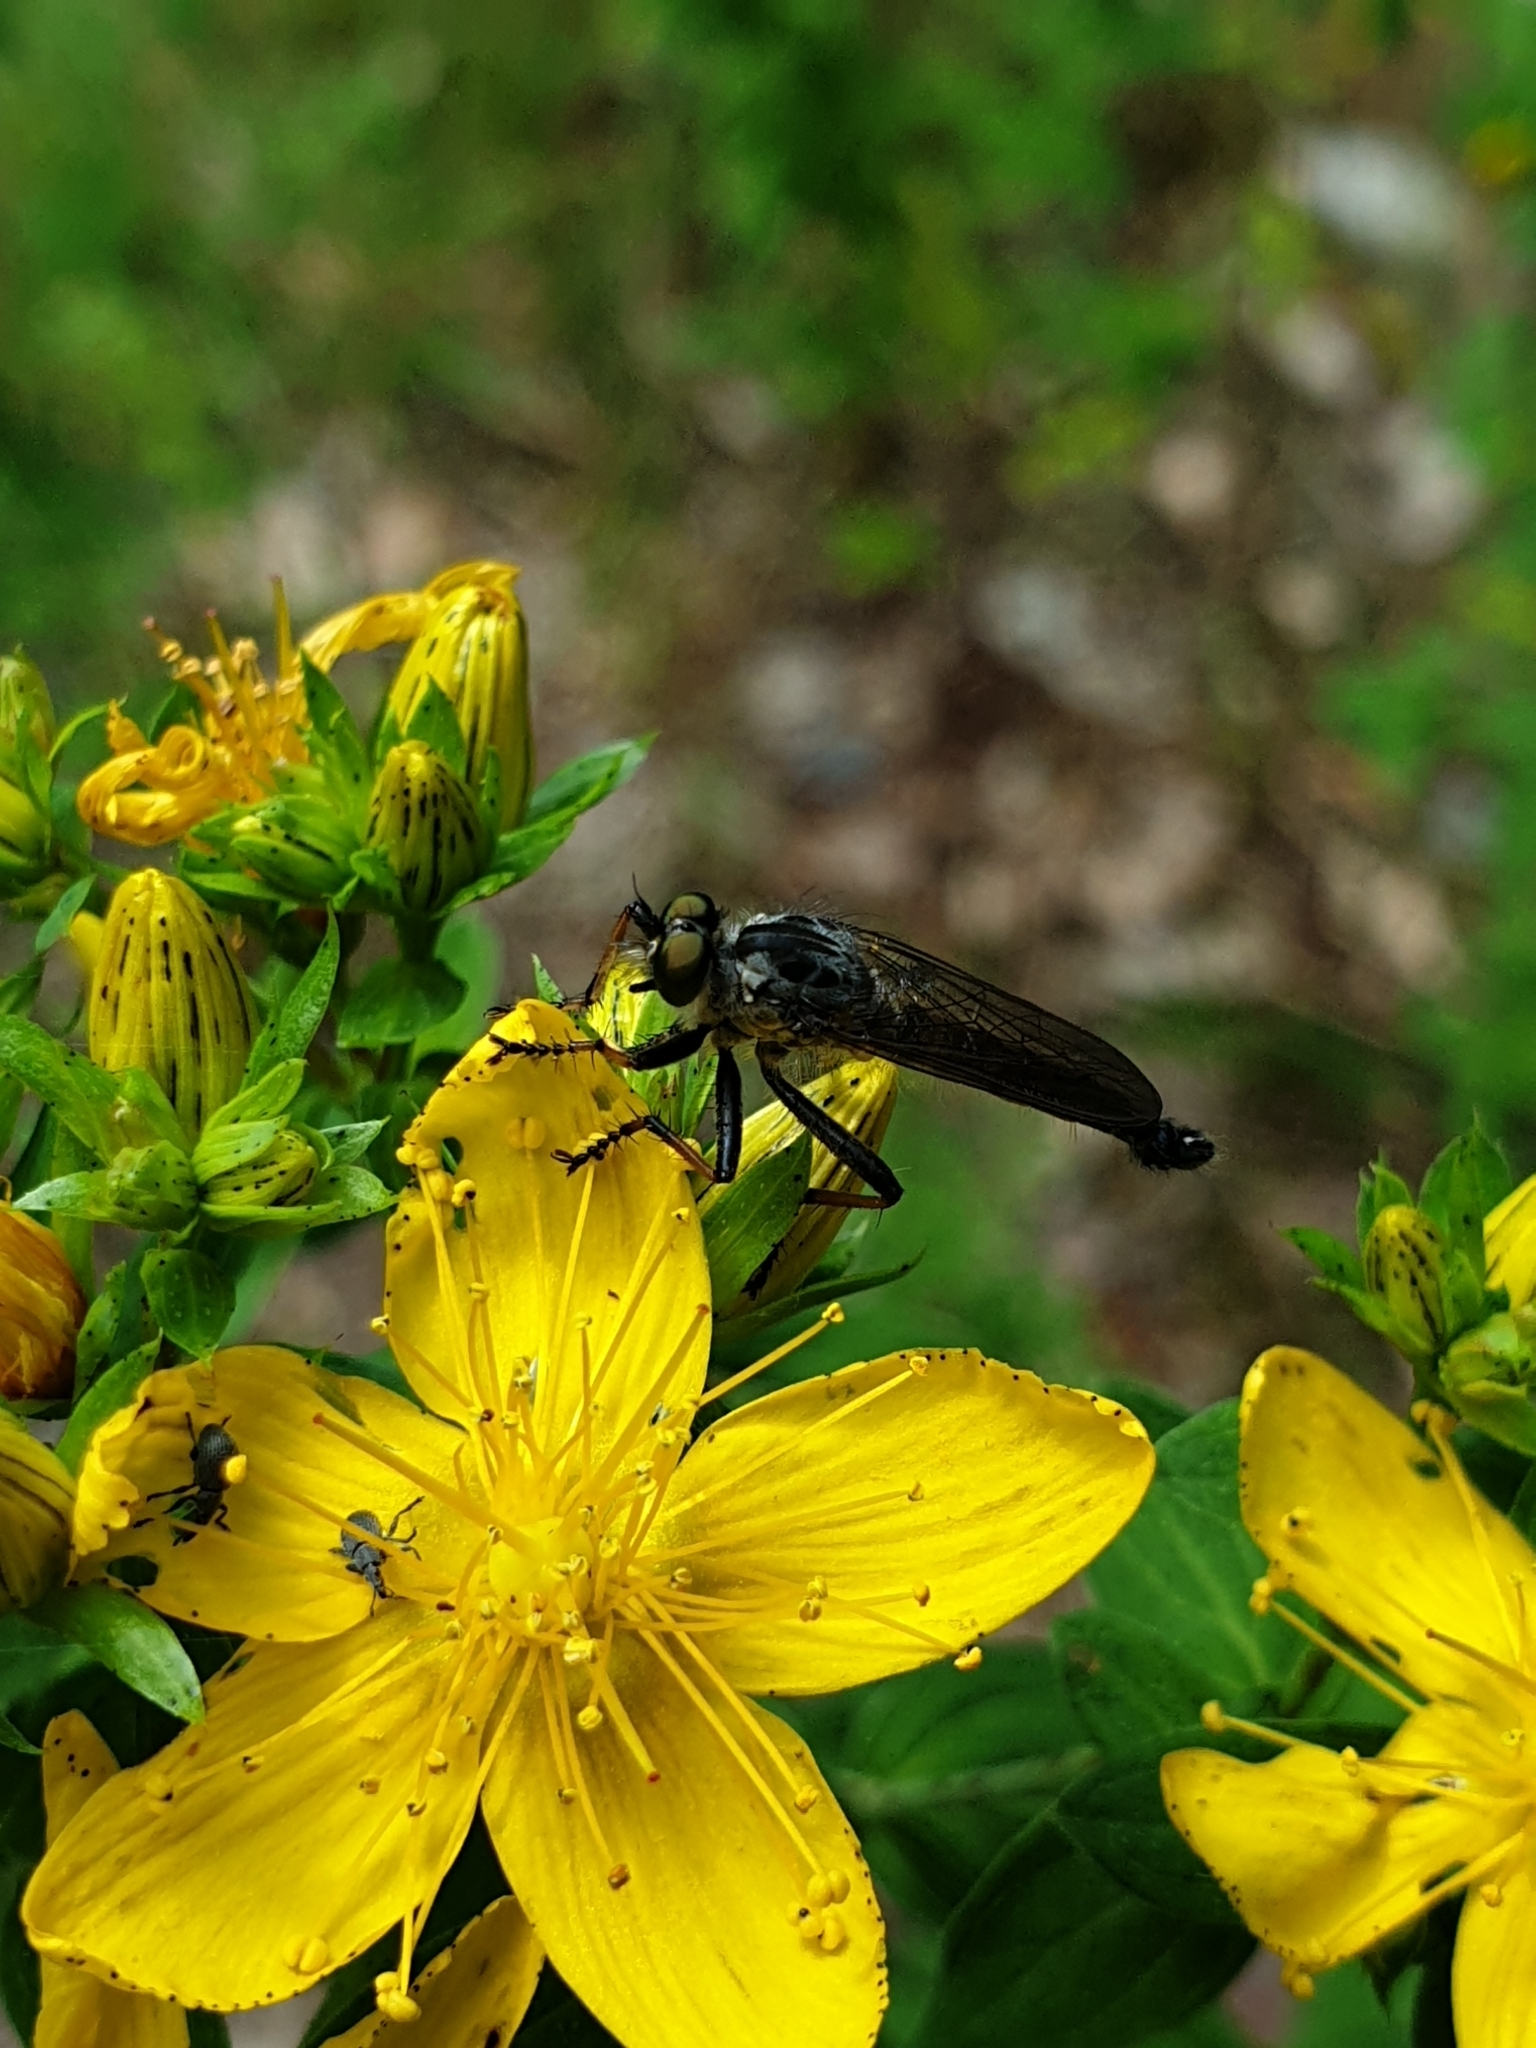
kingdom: Animalia
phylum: Arthropoda
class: Insecta
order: Diptera
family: Asilidae
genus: Neoitamus
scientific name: Neoitamus socius
